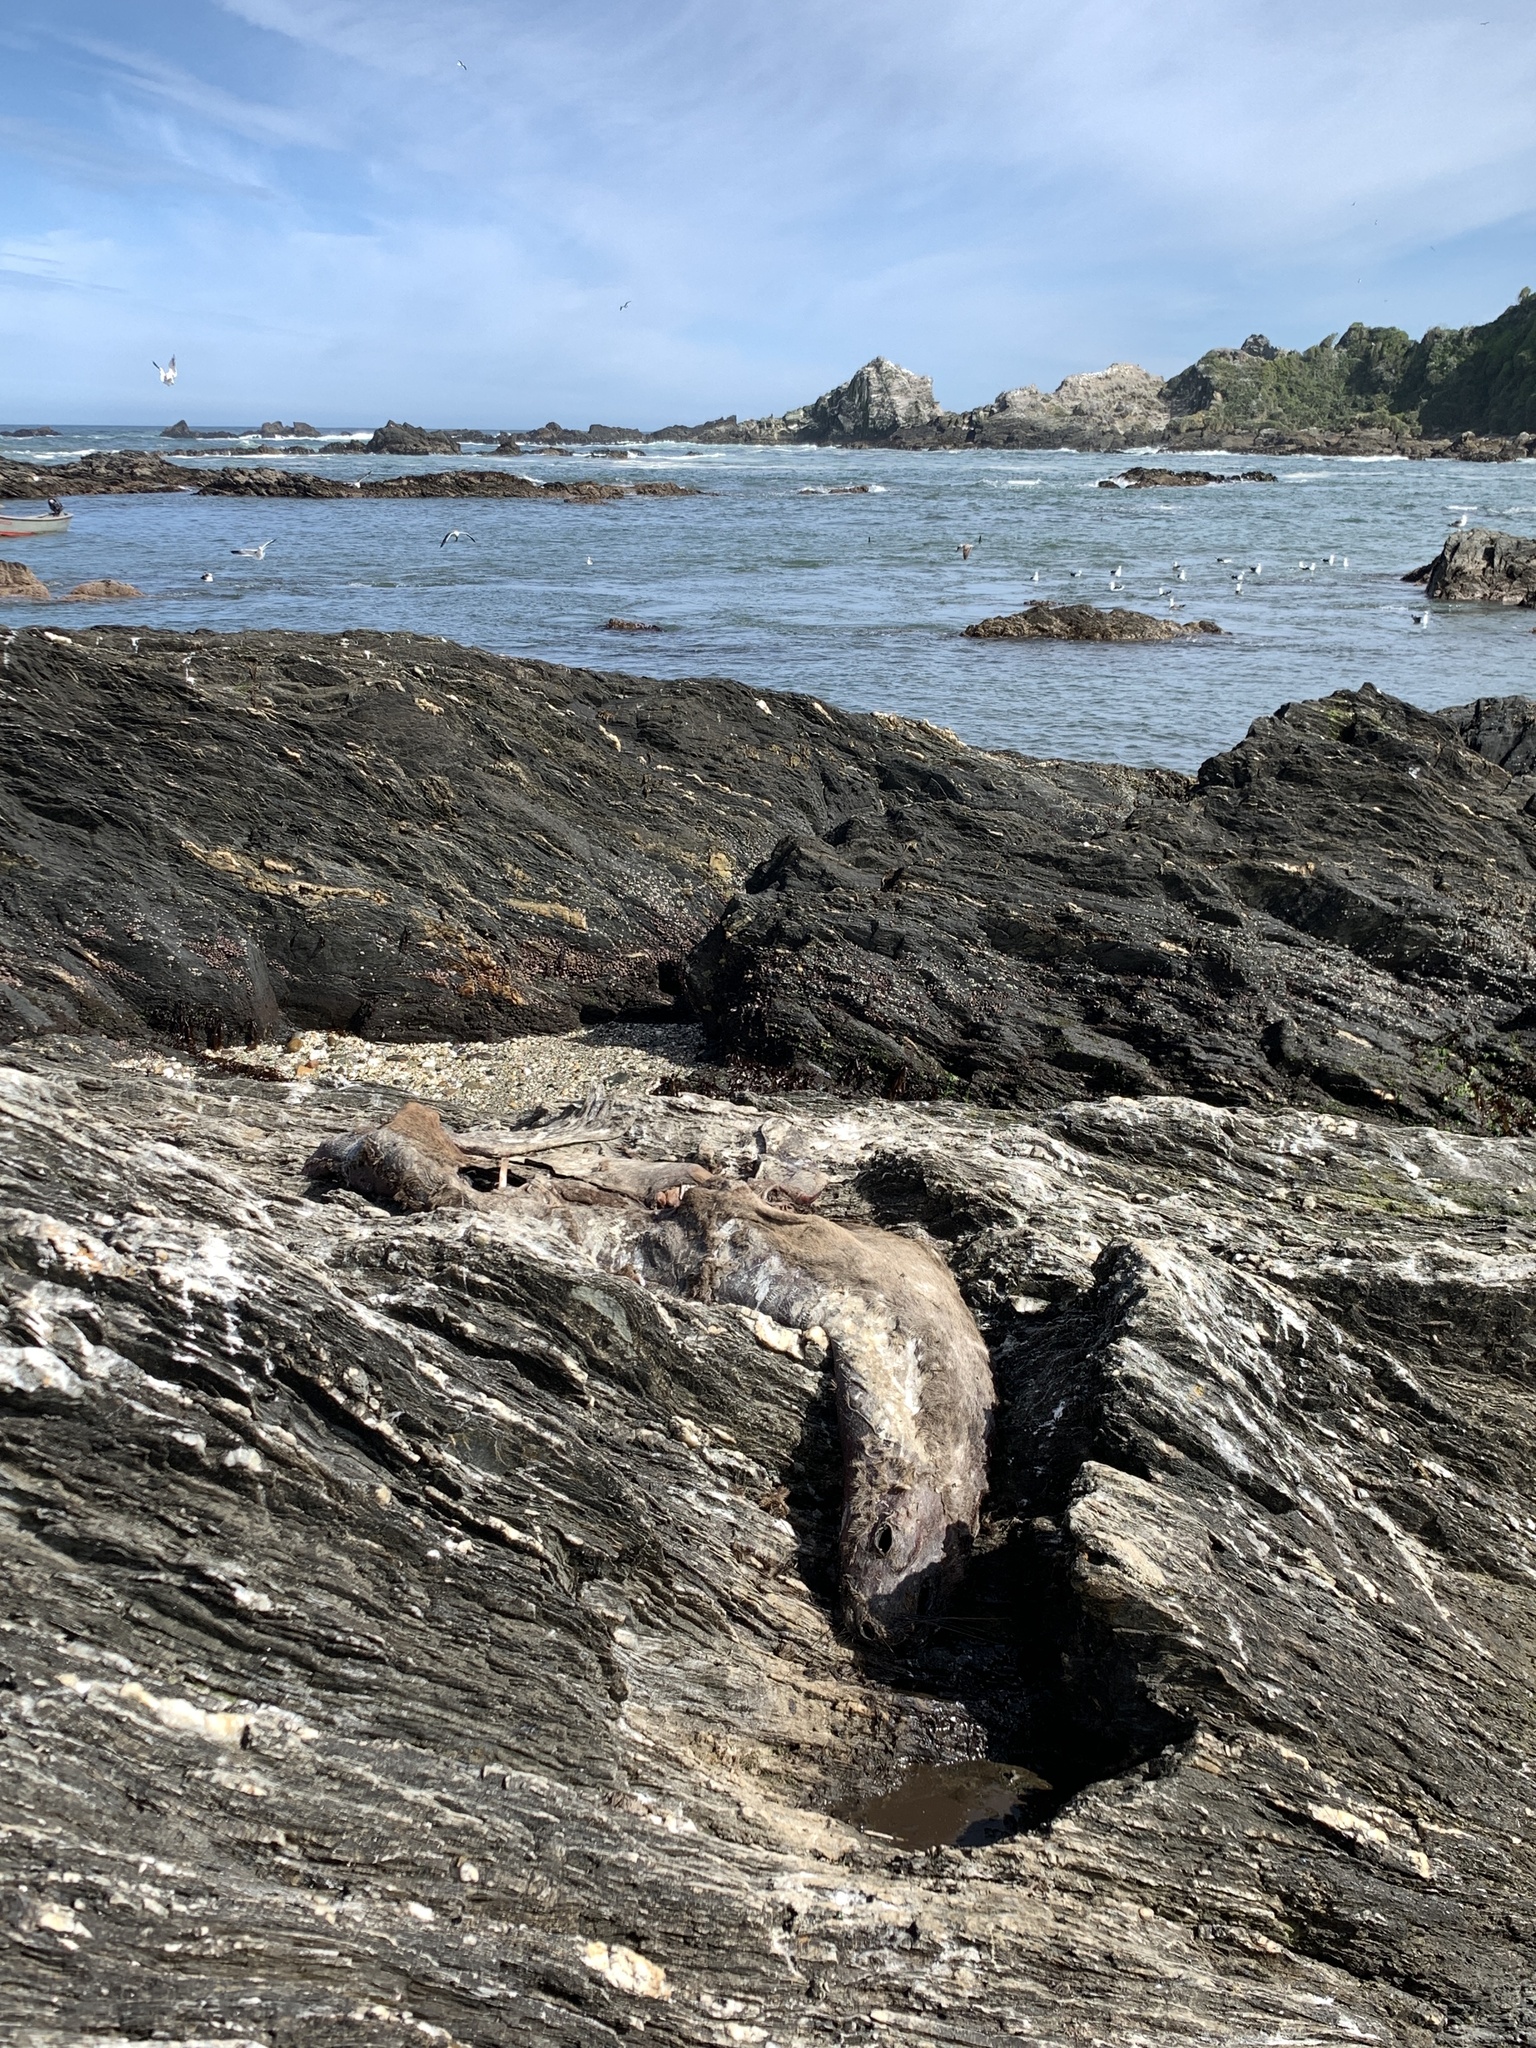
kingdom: Animalia
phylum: Chordata
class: Mammalia
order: Carnivora
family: Otariidae
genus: Otaria
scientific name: Otaria byronia
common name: South american sea lion
